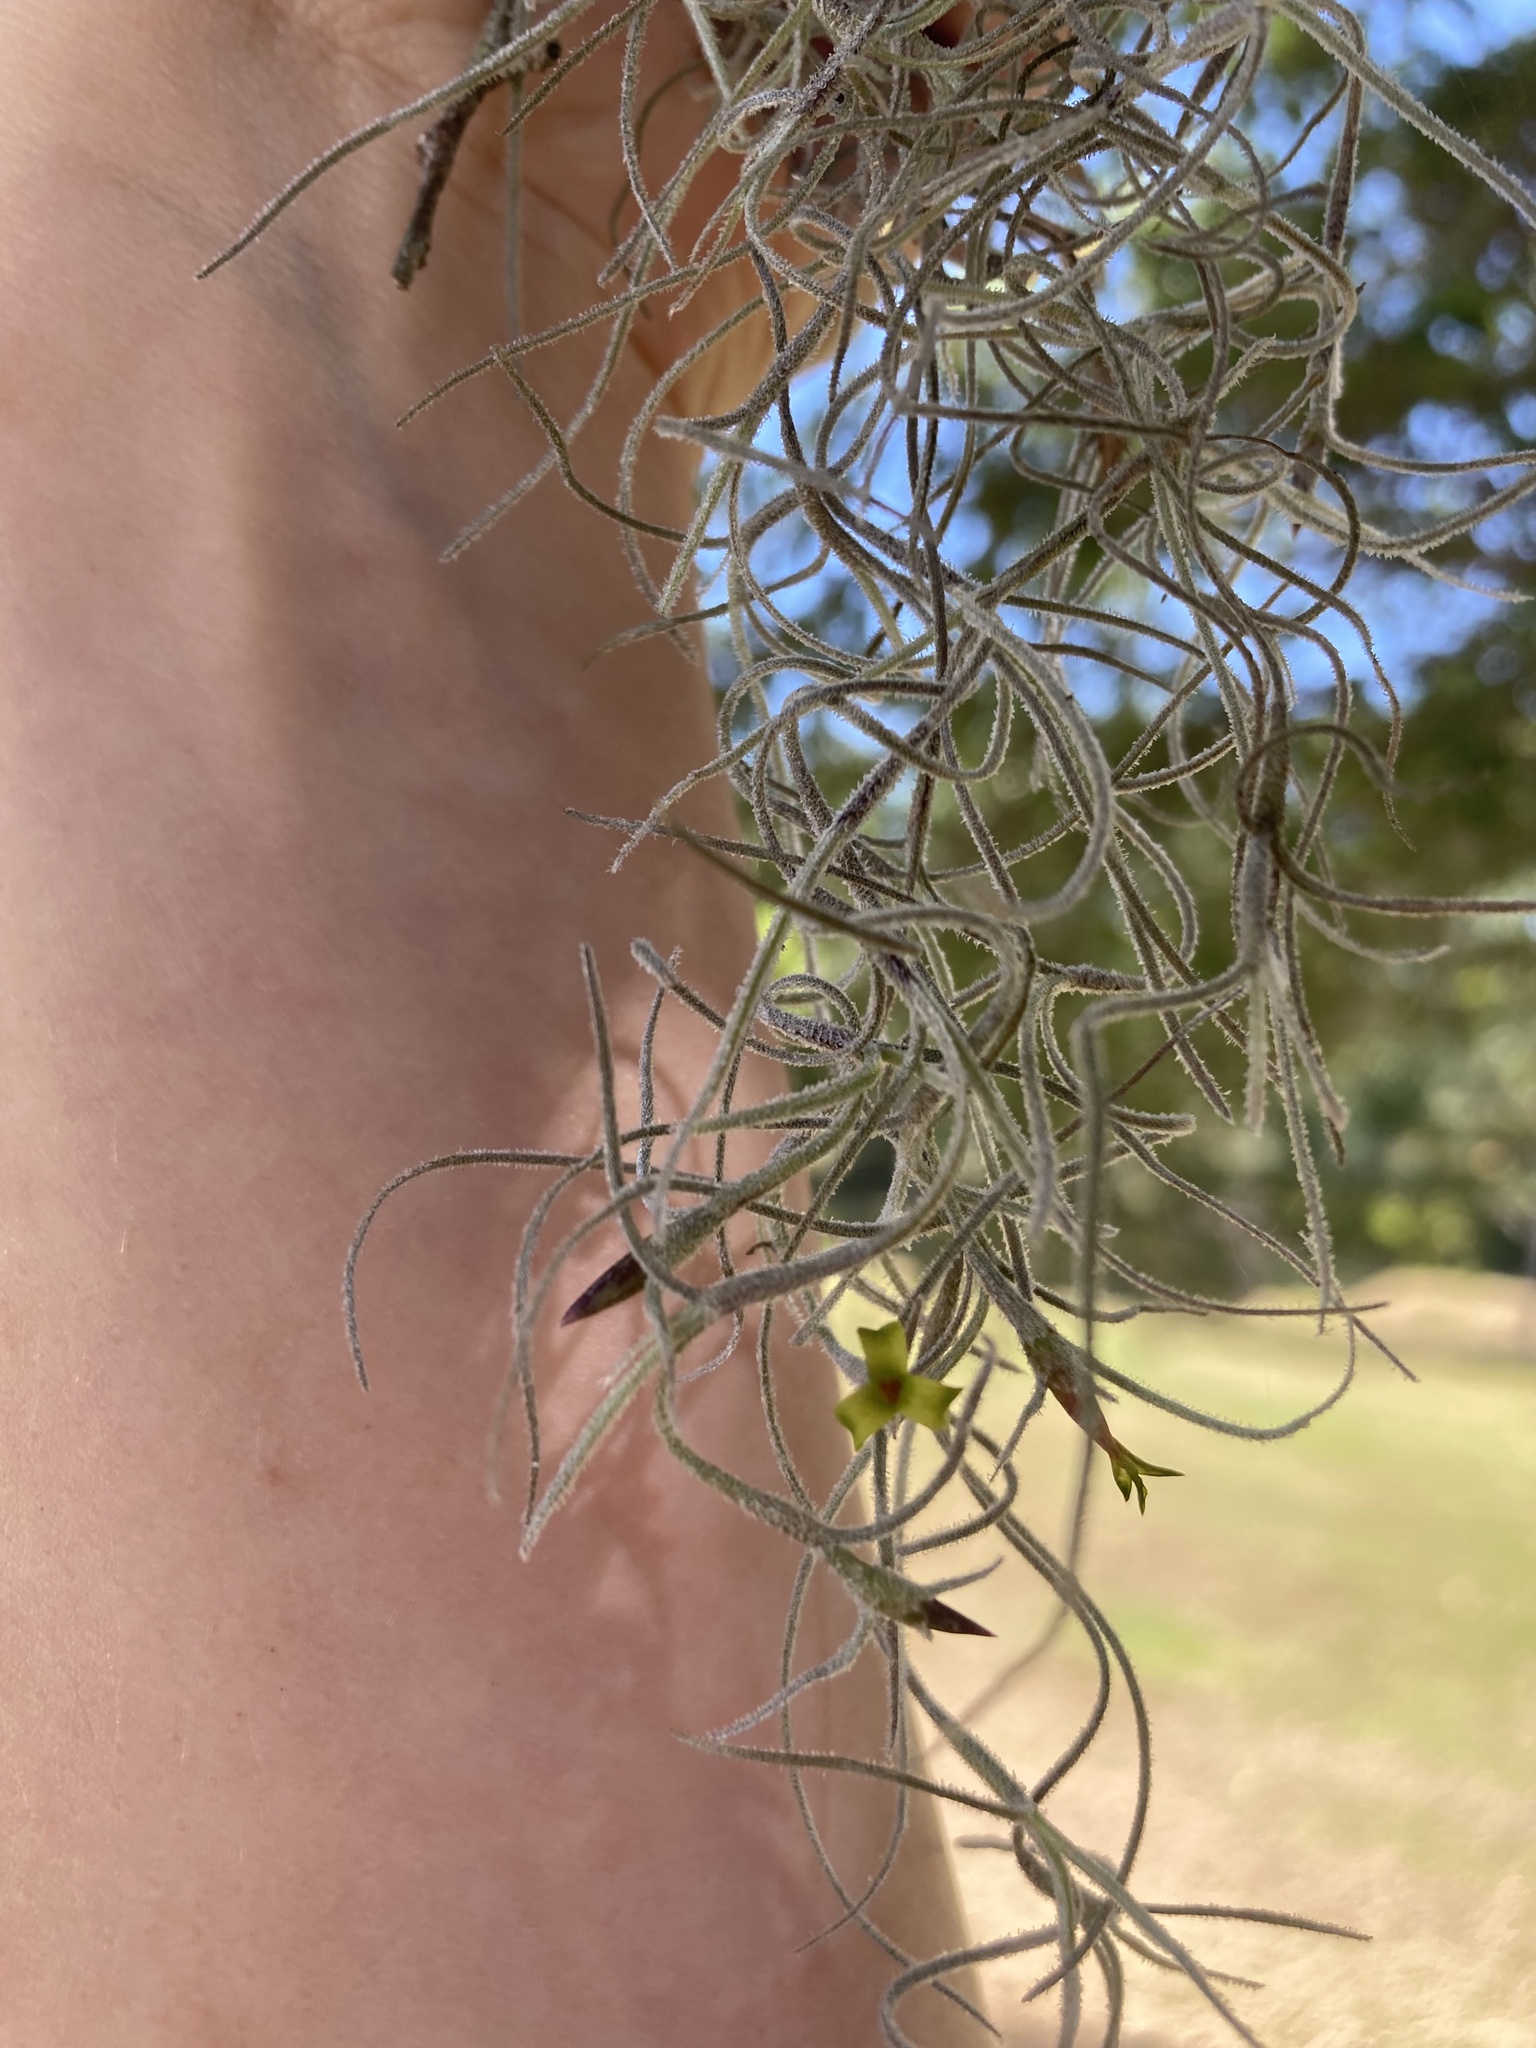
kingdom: Plantae
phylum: Tracheophyta
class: Liliopsida
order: Poales
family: Bromeliaceae
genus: Tillandsia
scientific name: Tillandsia usneoides
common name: Spanish moss
